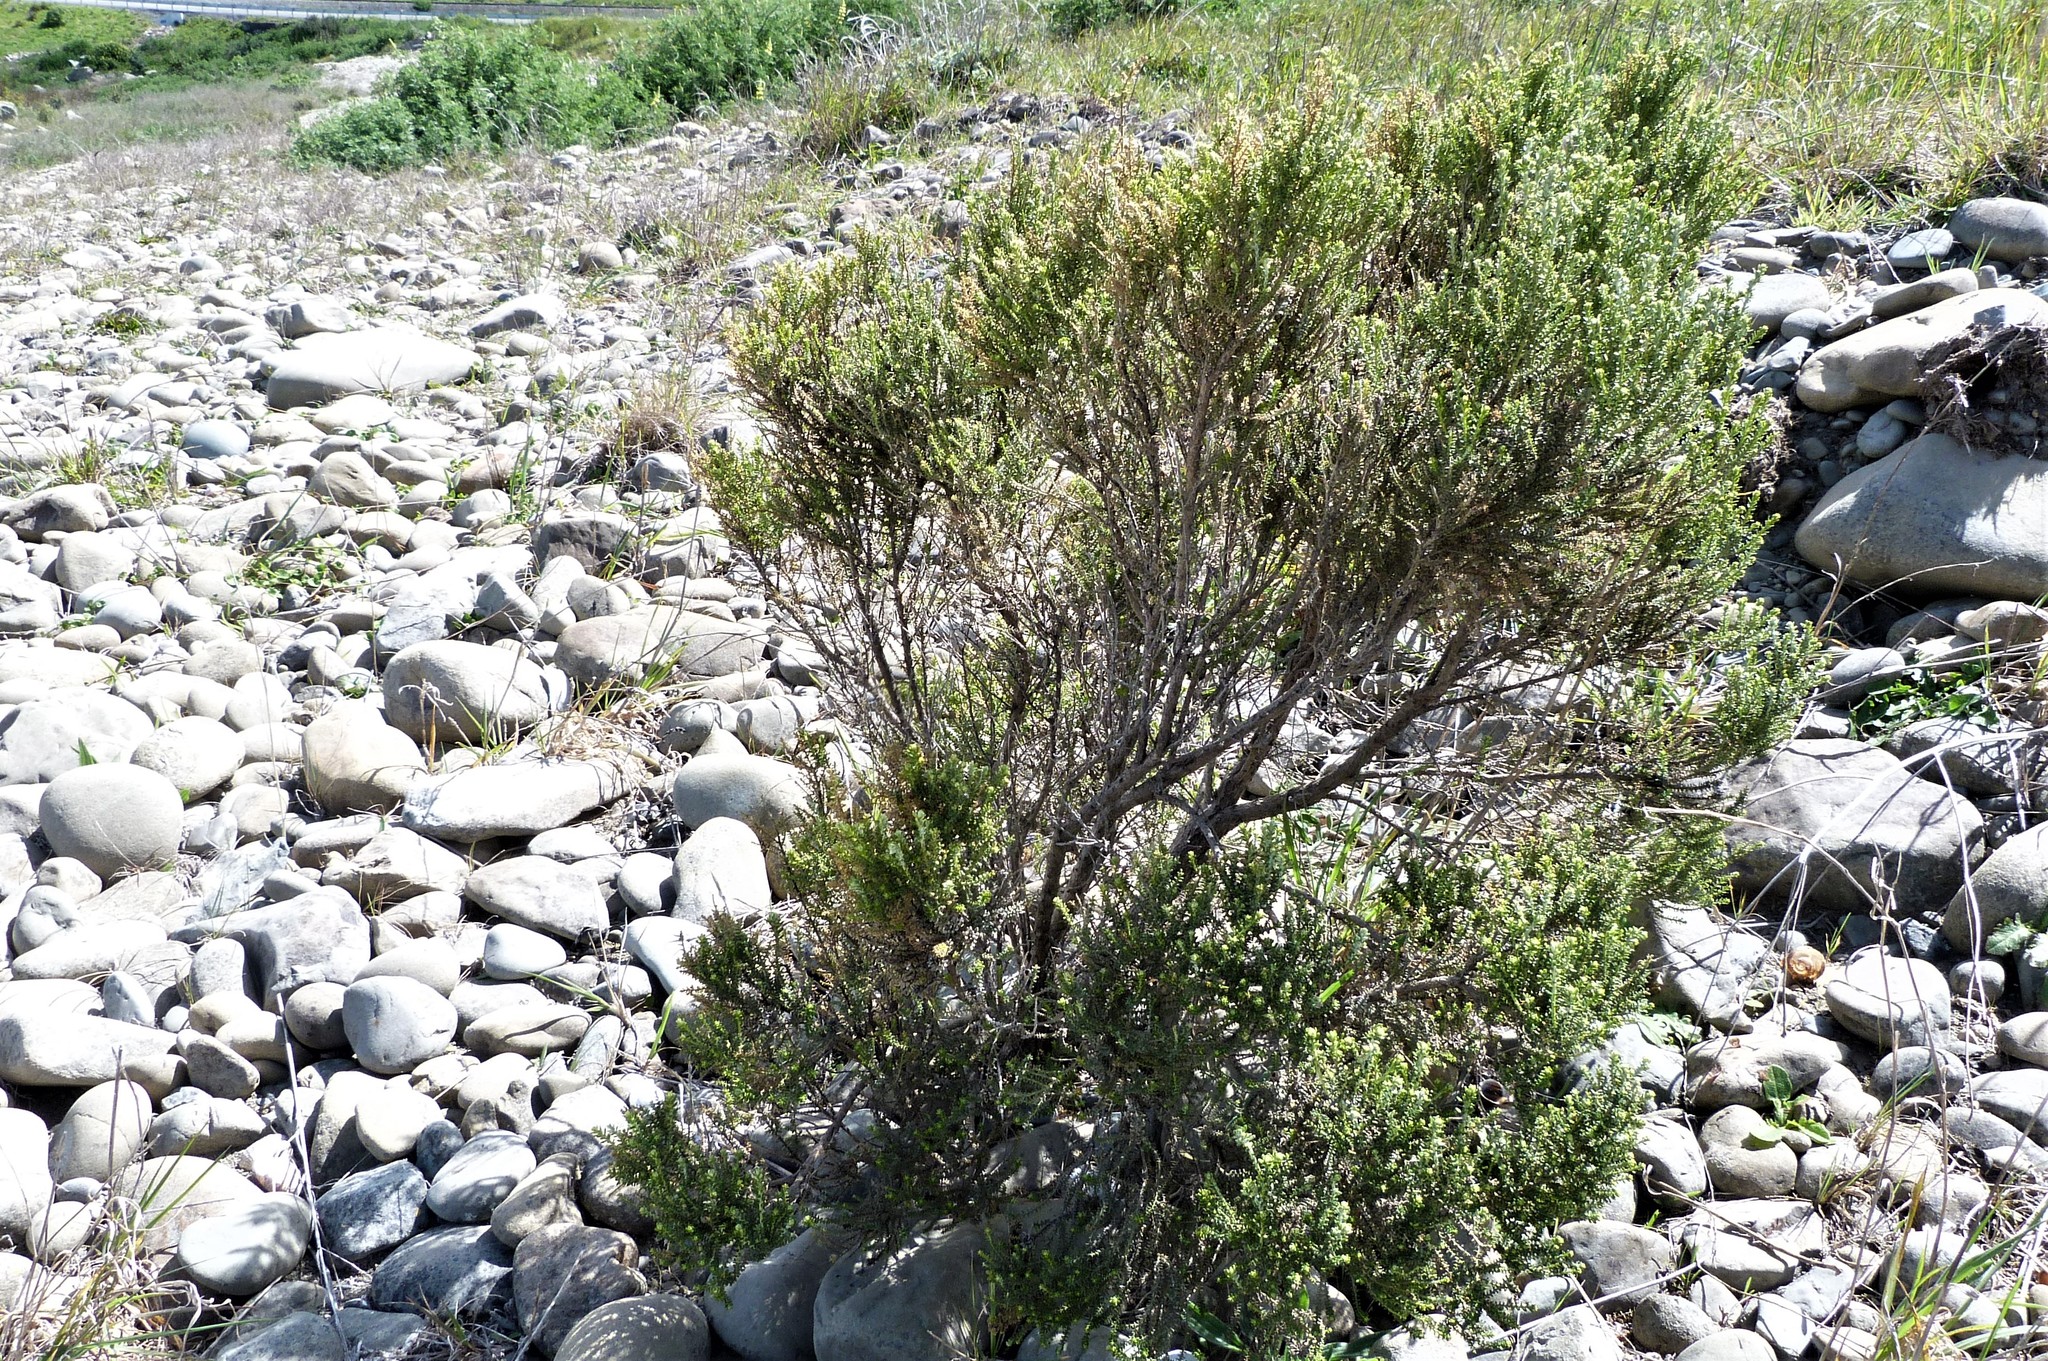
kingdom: Plantae
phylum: Tracheophyta
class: Magnoliopsida
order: Asterales
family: Asteraceae
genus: Ozothamnus
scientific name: Ozothamnus leptophyllus
